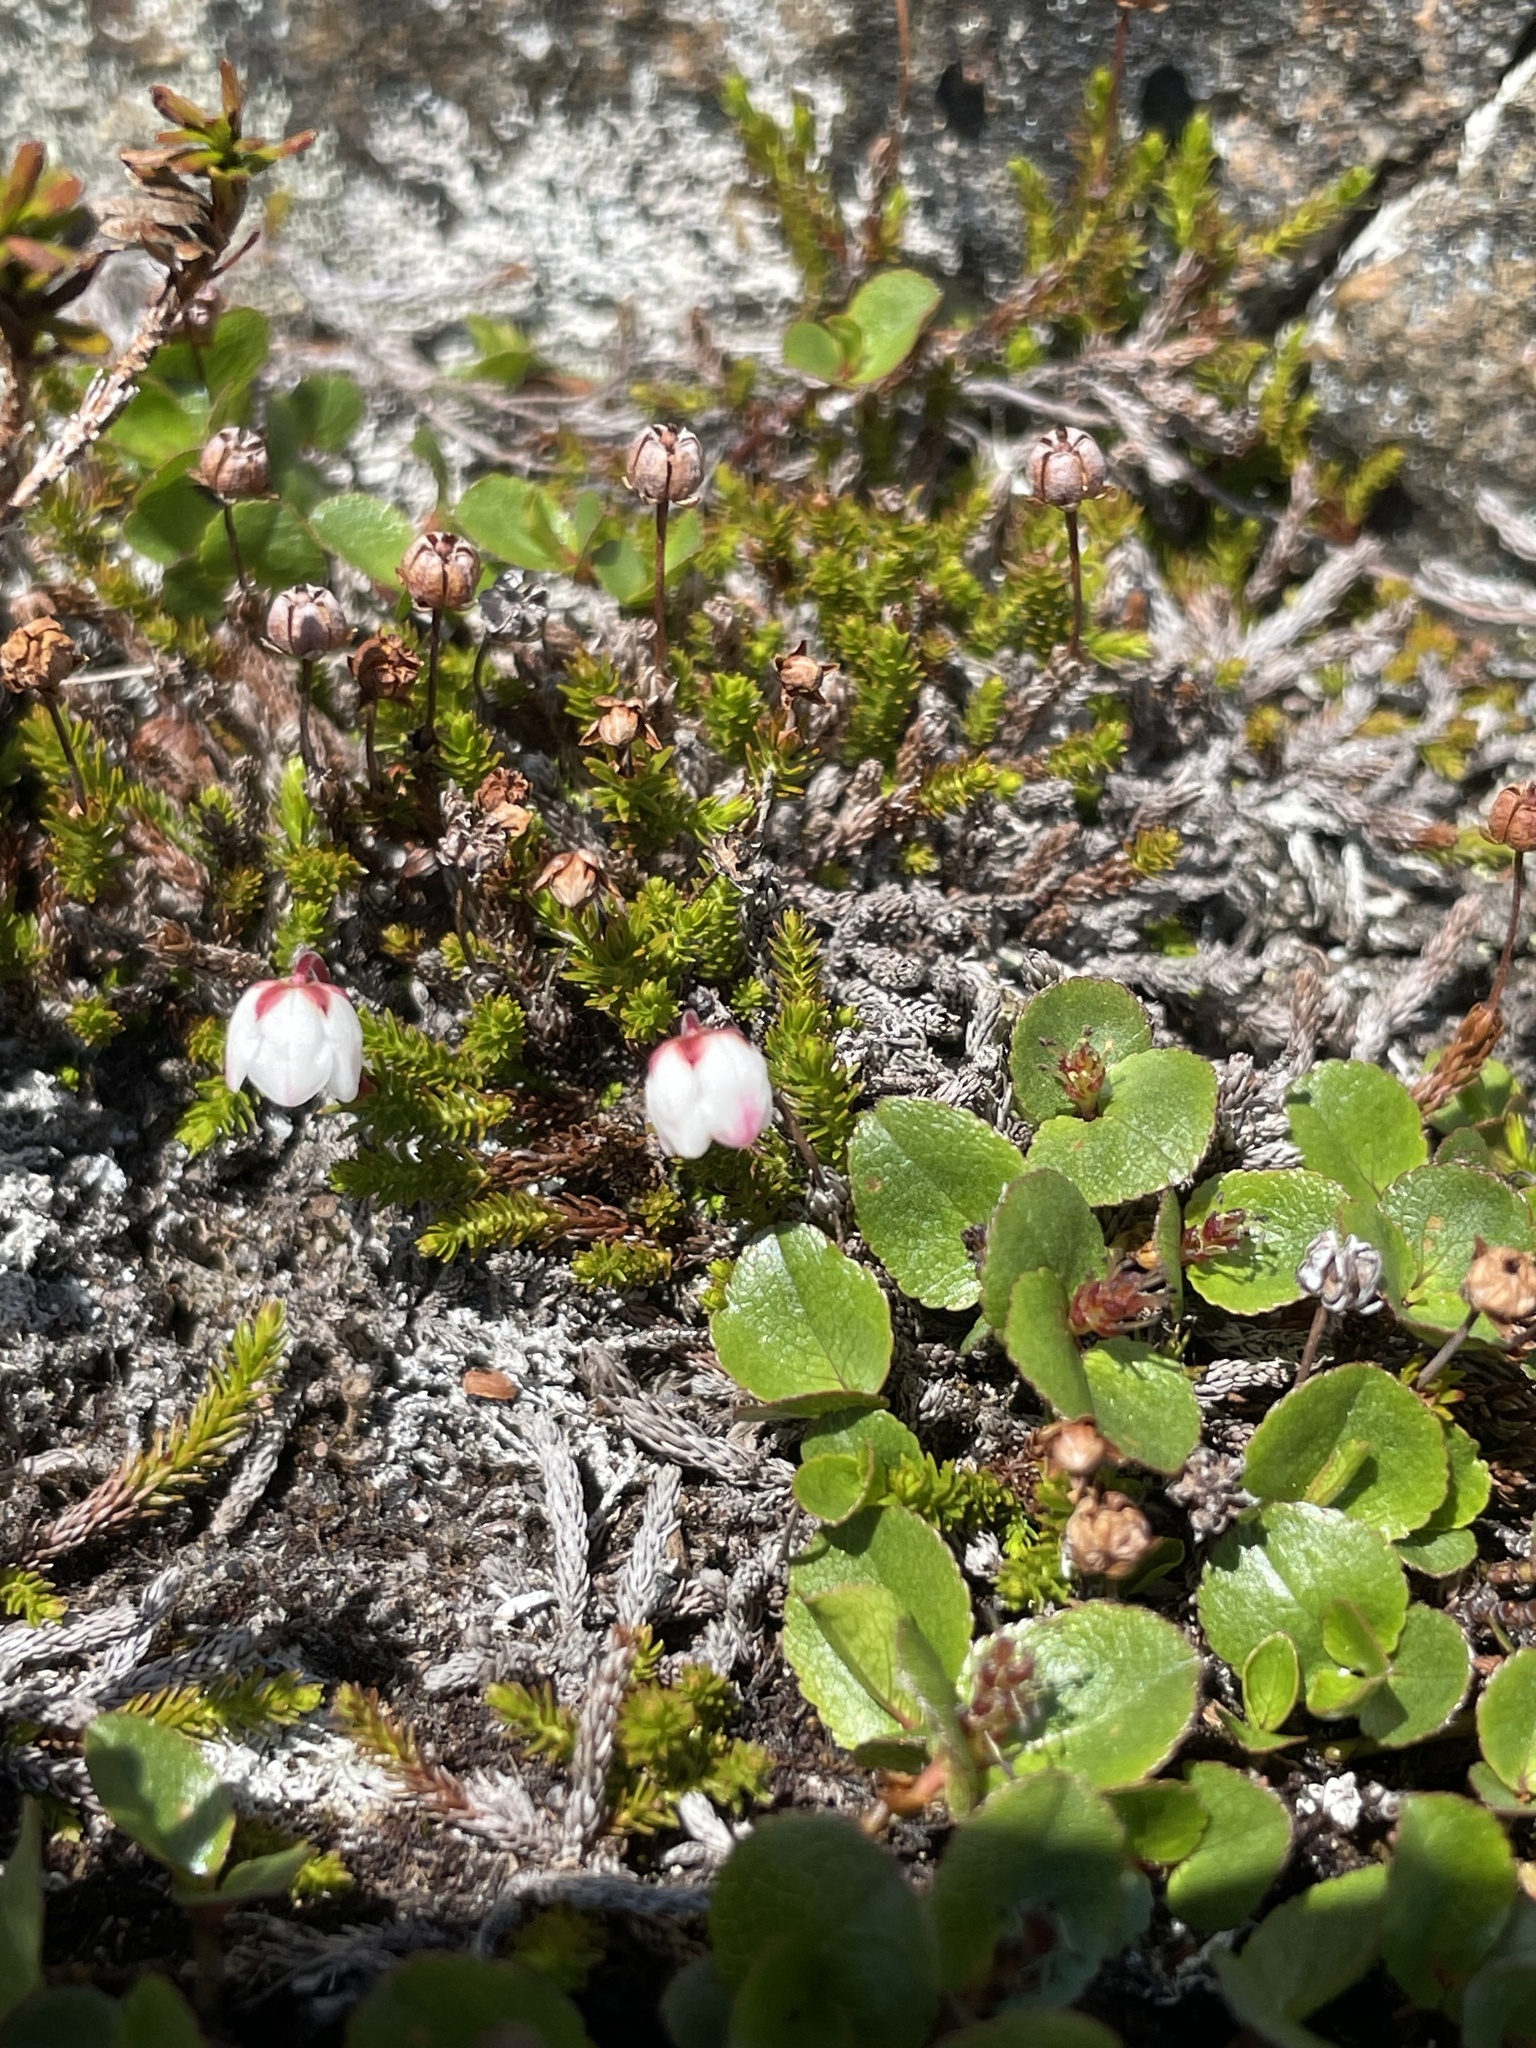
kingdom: Plantae
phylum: Tracheophyta
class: Magnoliopsida
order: Ericales
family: Ericaceae
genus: Harrimanella
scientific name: Harrimanella hypnoides
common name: Moss bell heather
